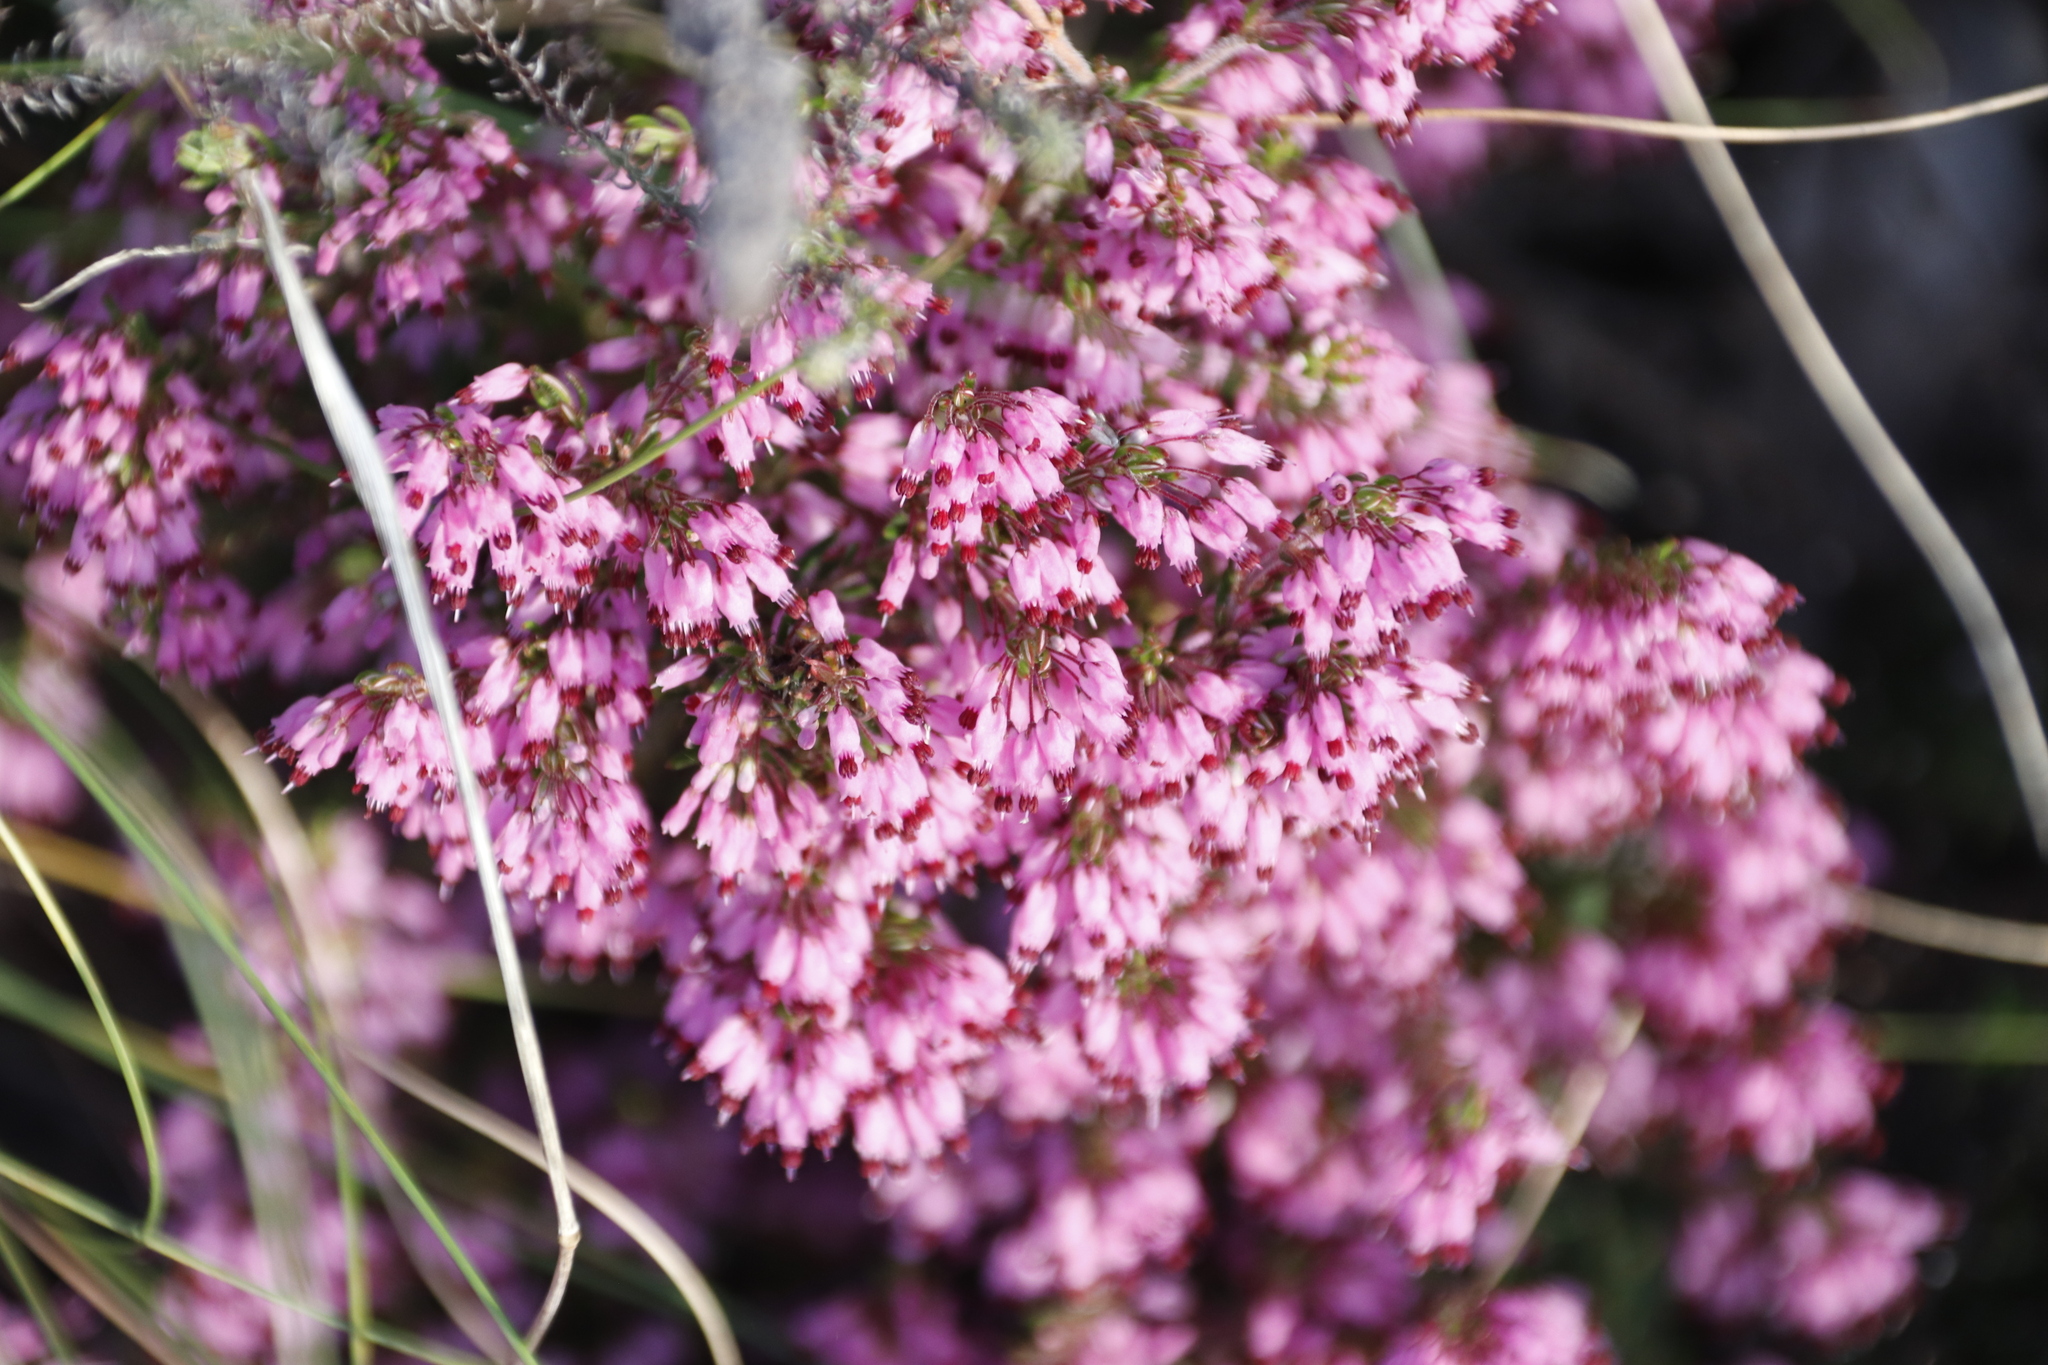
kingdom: Plantae
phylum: Tracheophyta
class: Magnoliopsida
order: Ericales
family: Ericaceae
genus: Erica
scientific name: Erica nudiflora
